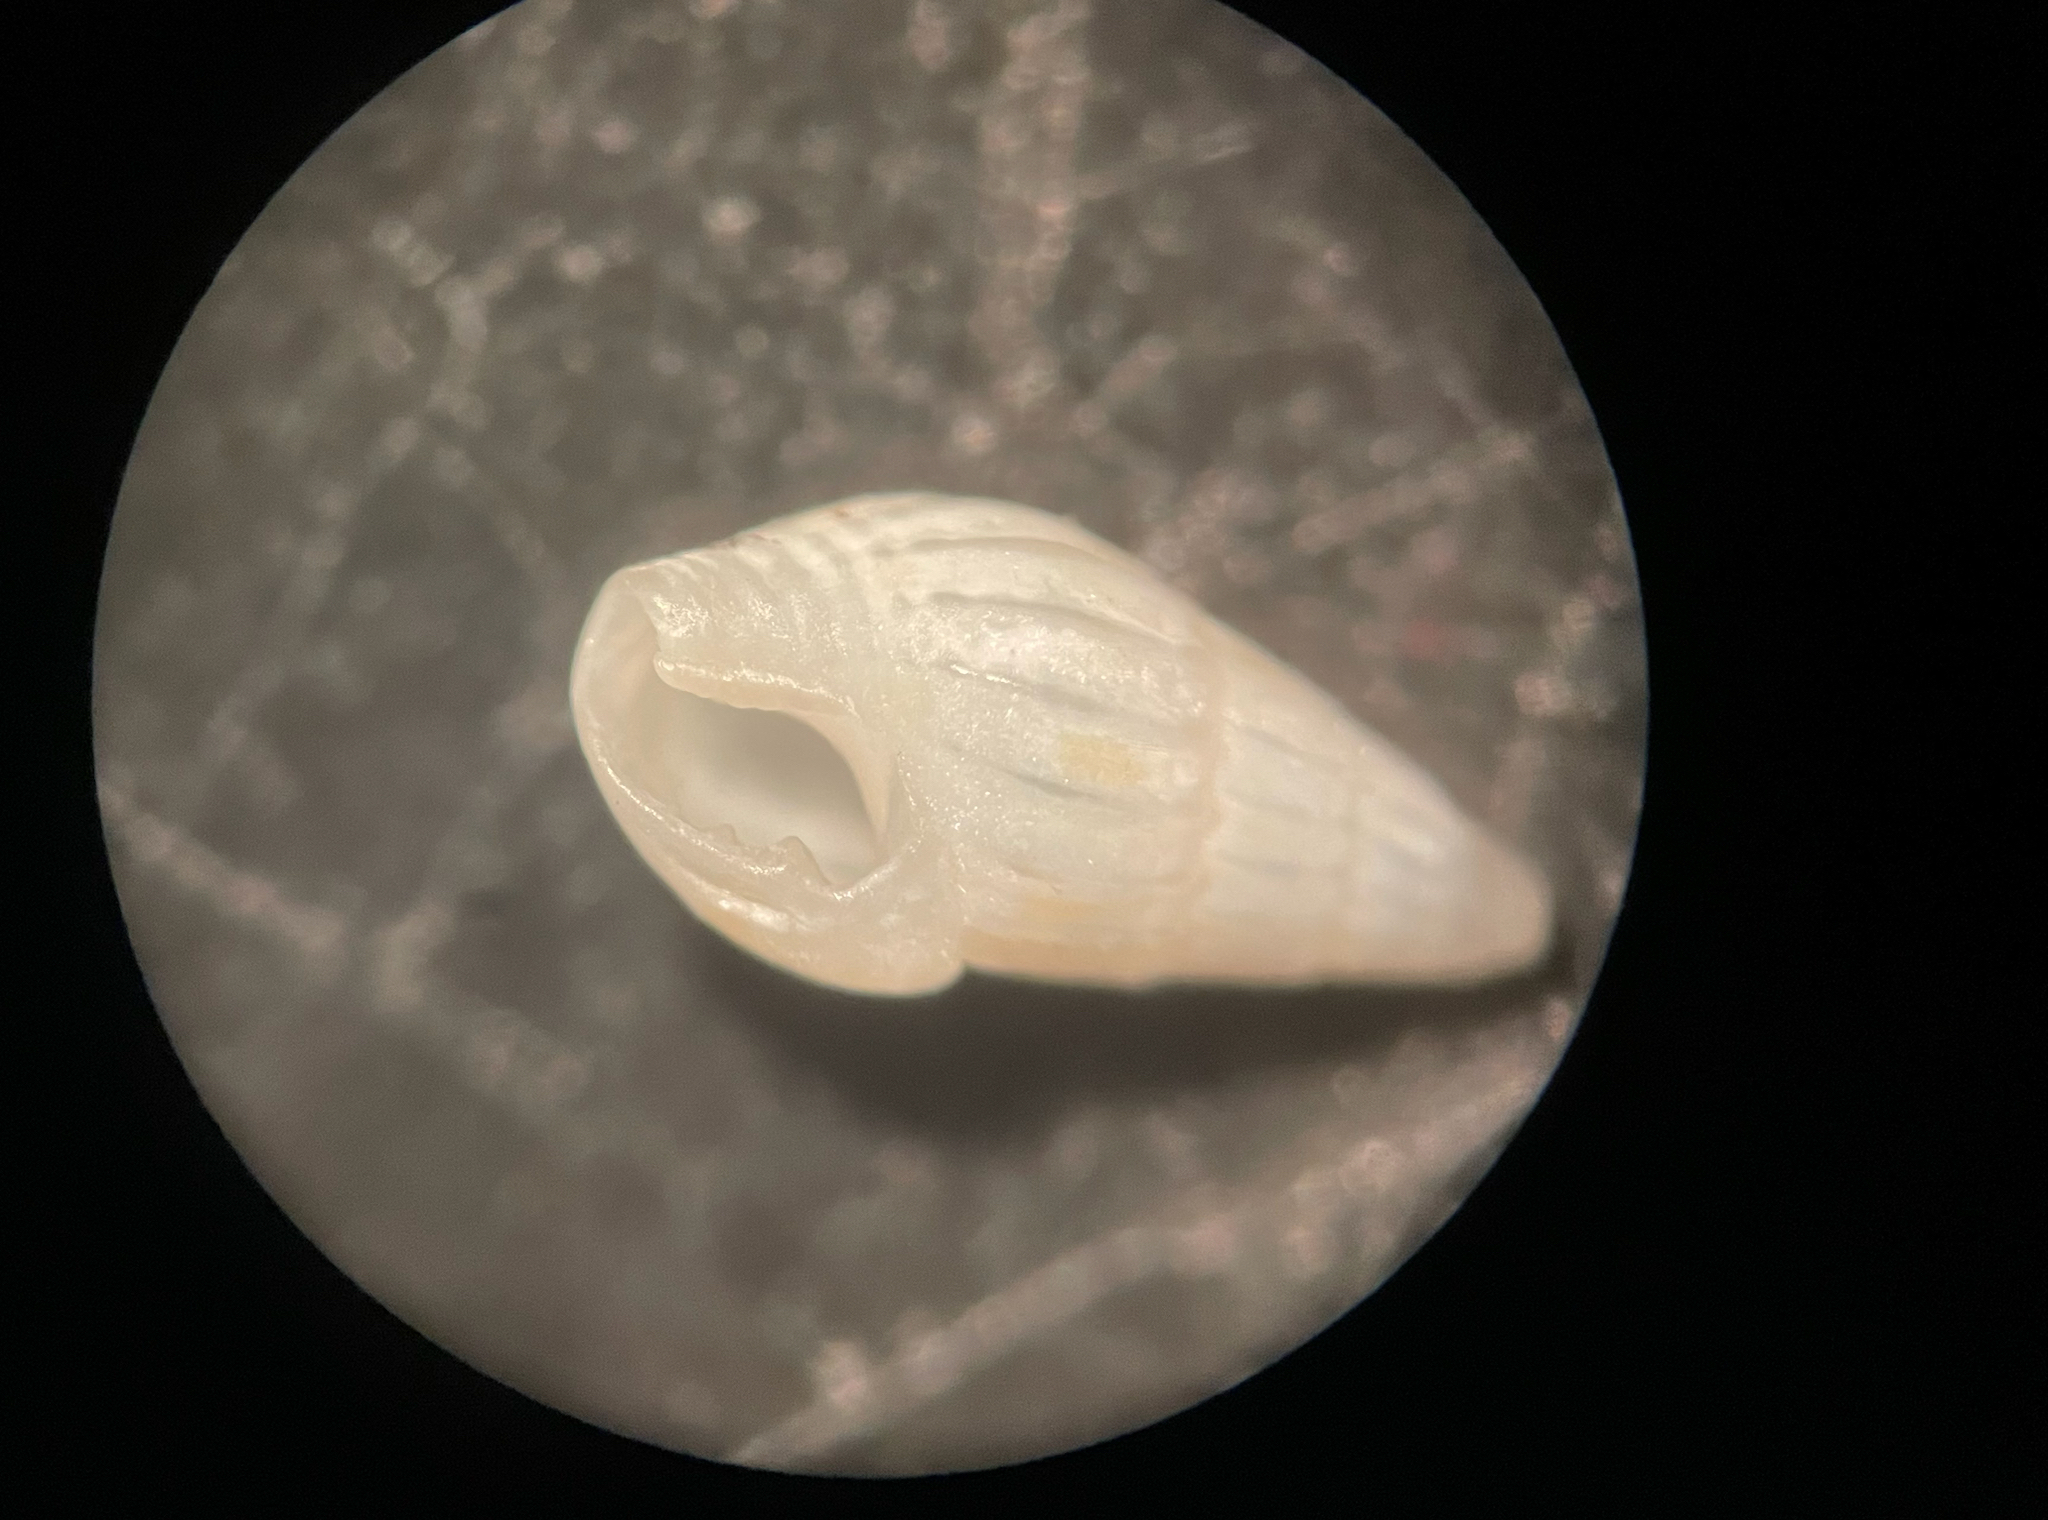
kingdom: Animalia
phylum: Mollusca
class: Gastropoda
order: Neogastropoda
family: Columbellidae
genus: Parvanachis
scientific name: Parvanachis obesa
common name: Fat dovesnail
